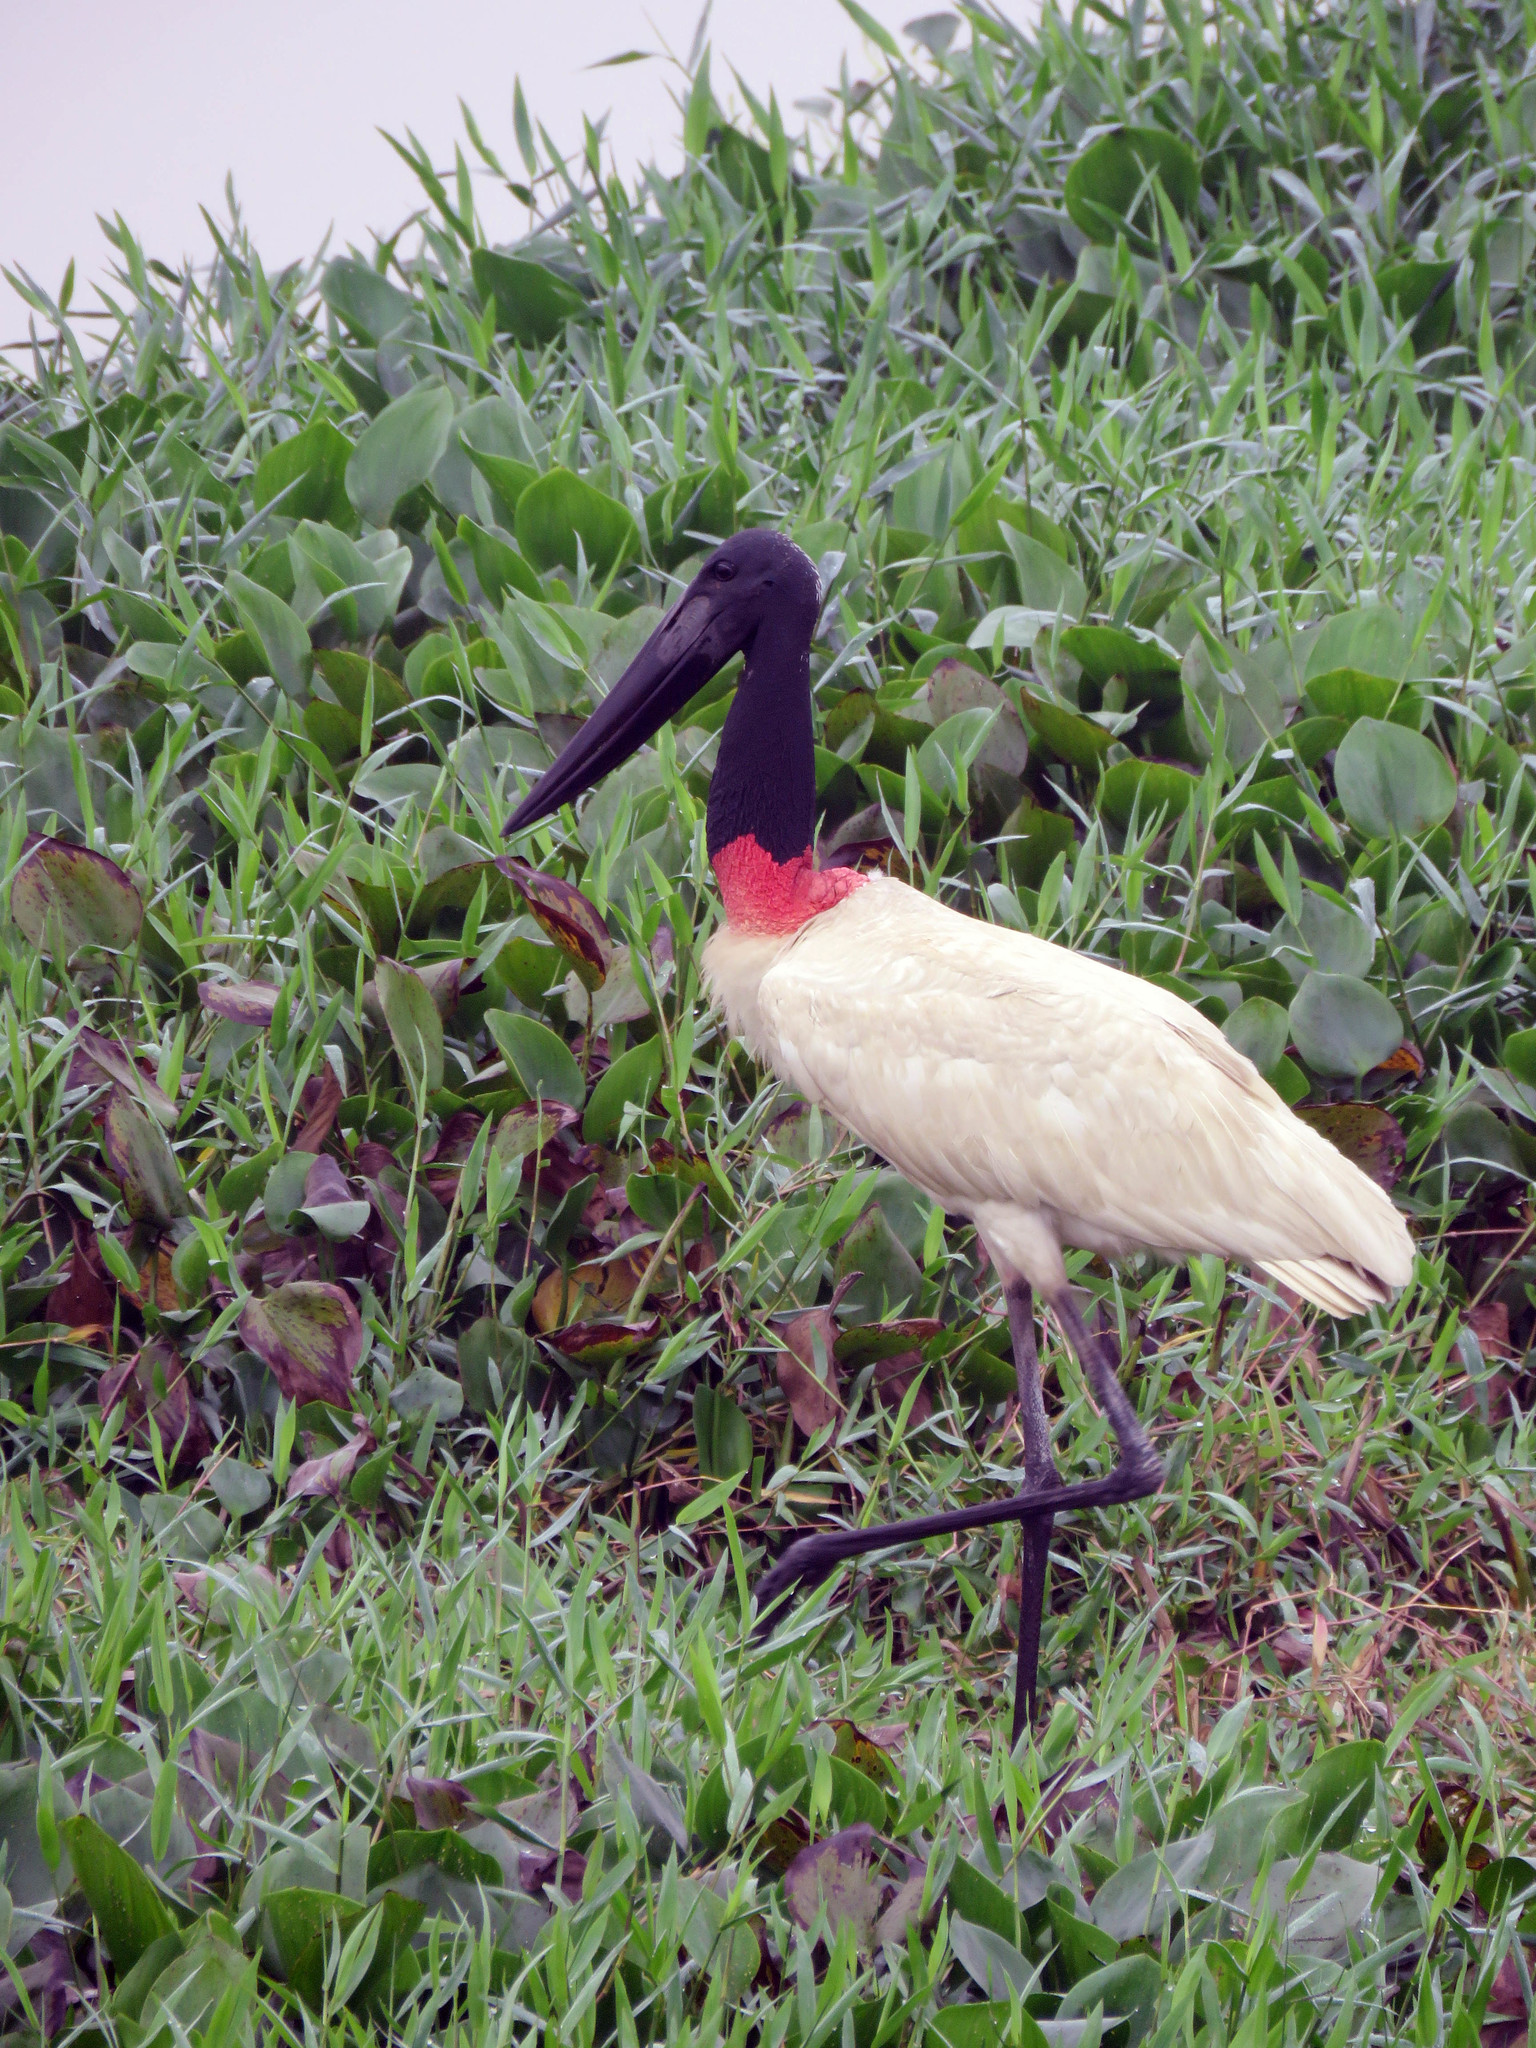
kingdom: Animalia
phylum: Chordata
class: Aves
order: Ciconiiformes
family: Ciconiidae
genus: Jabiru
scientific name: Jabiru mycteria
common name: Jabiru
